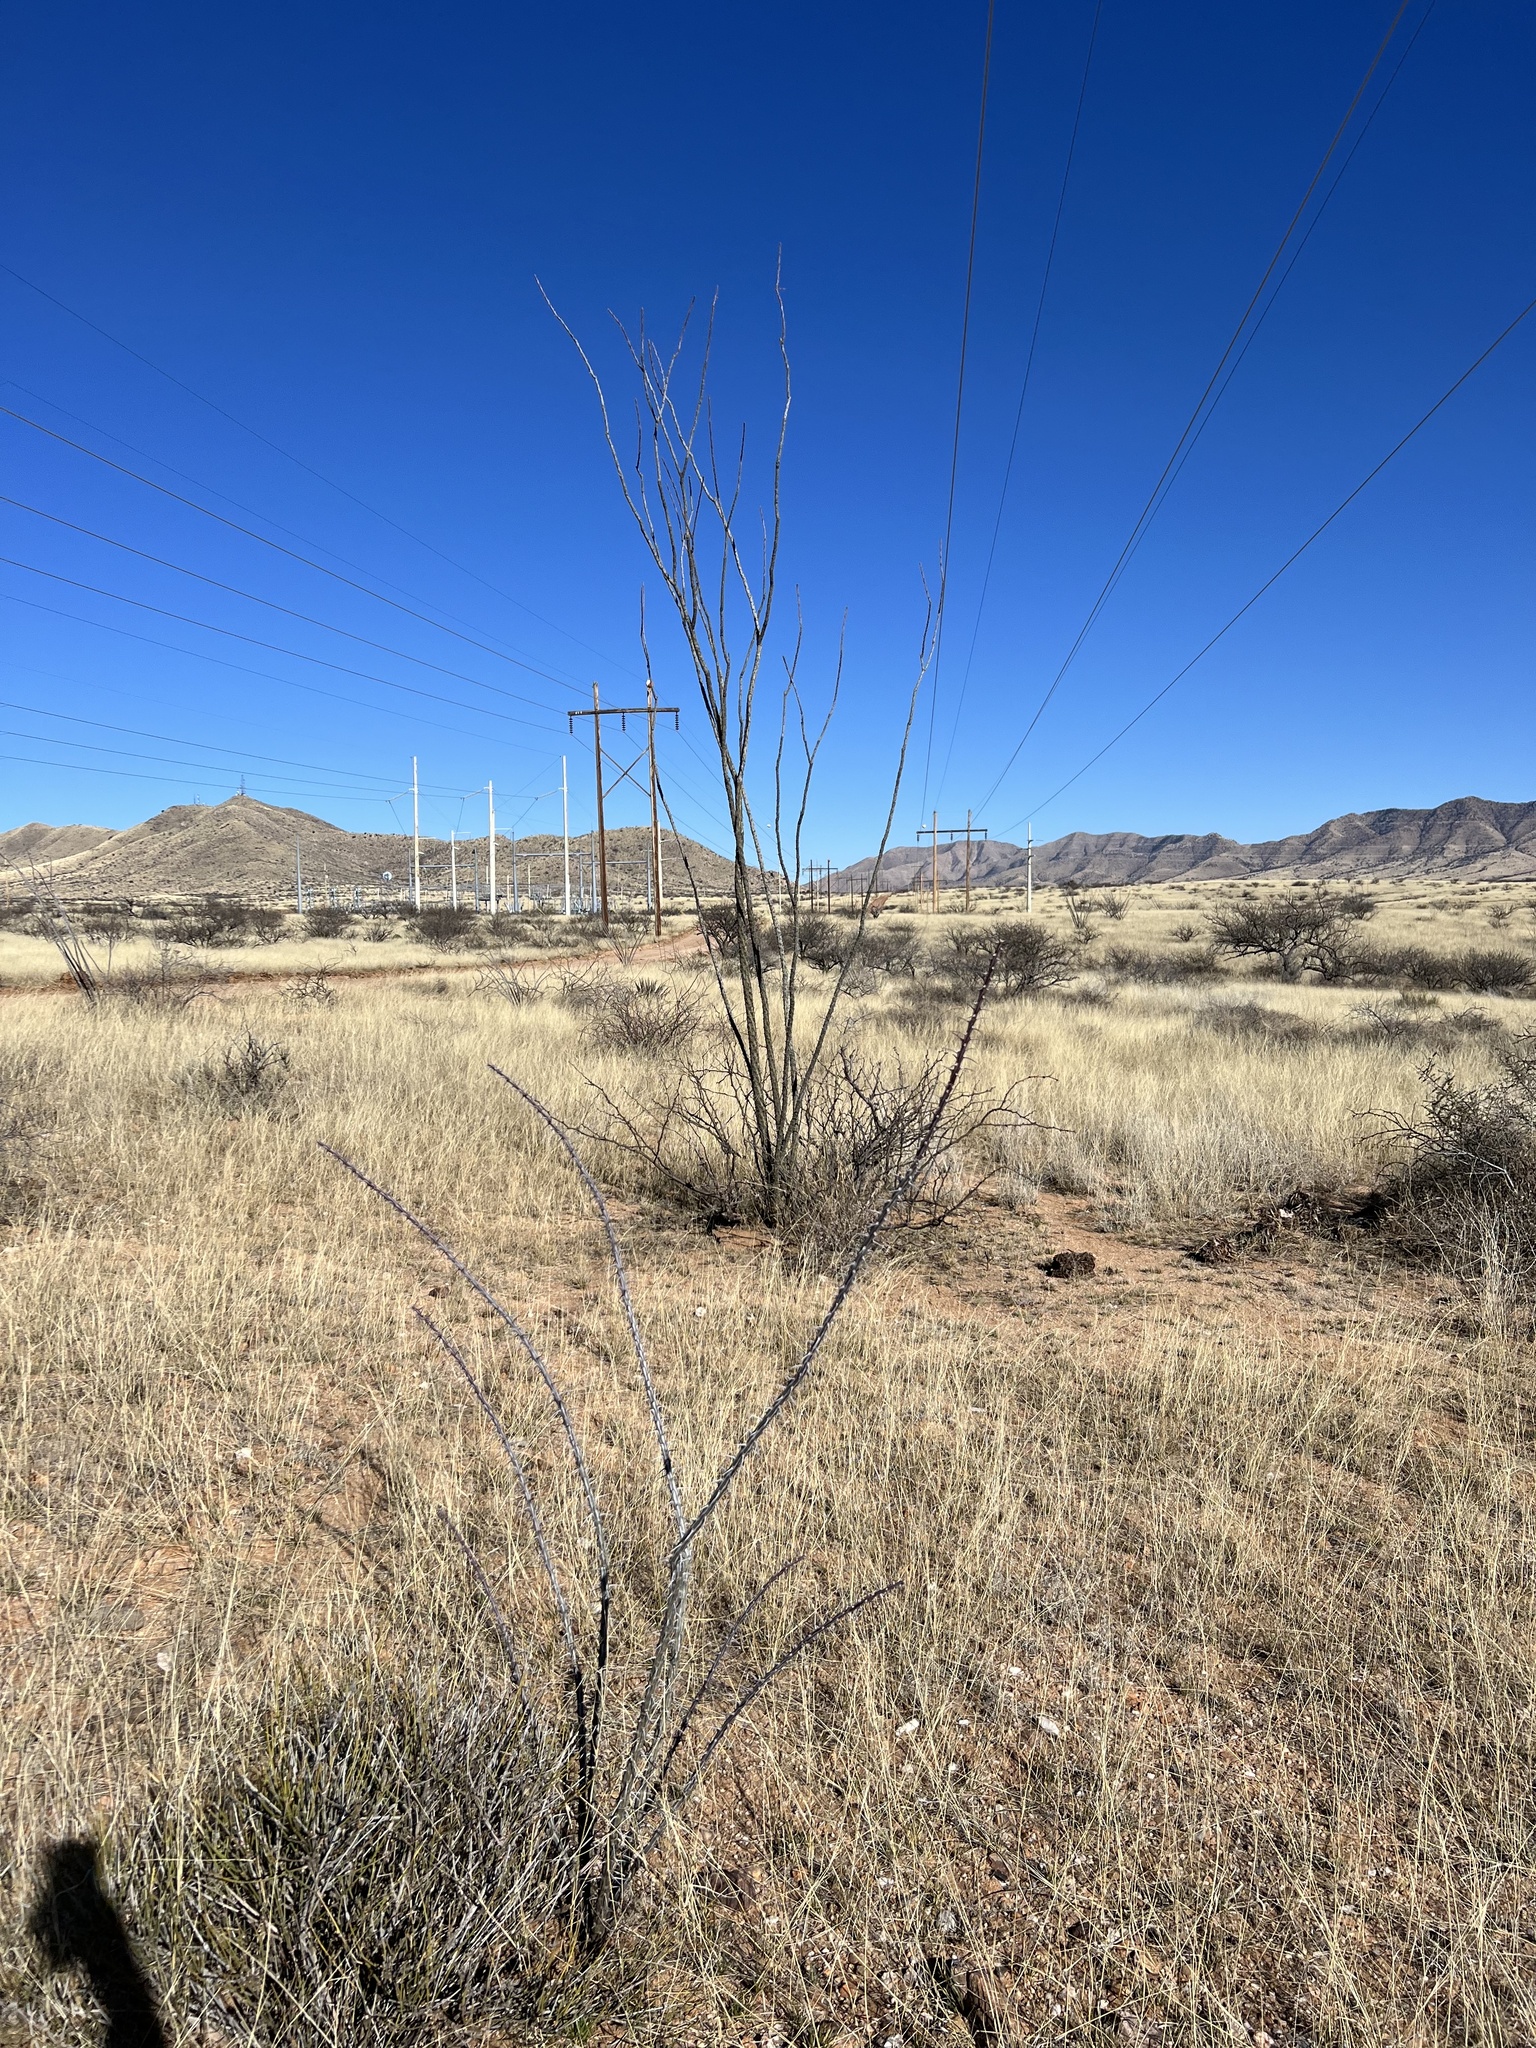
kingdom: Plantae
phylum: Tracheophyta
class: Magnoliopsida
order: Ericales
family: Fouquieriaceae
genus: Fouquieria
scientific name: Fouquieria splendens
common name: Vine-cactus
